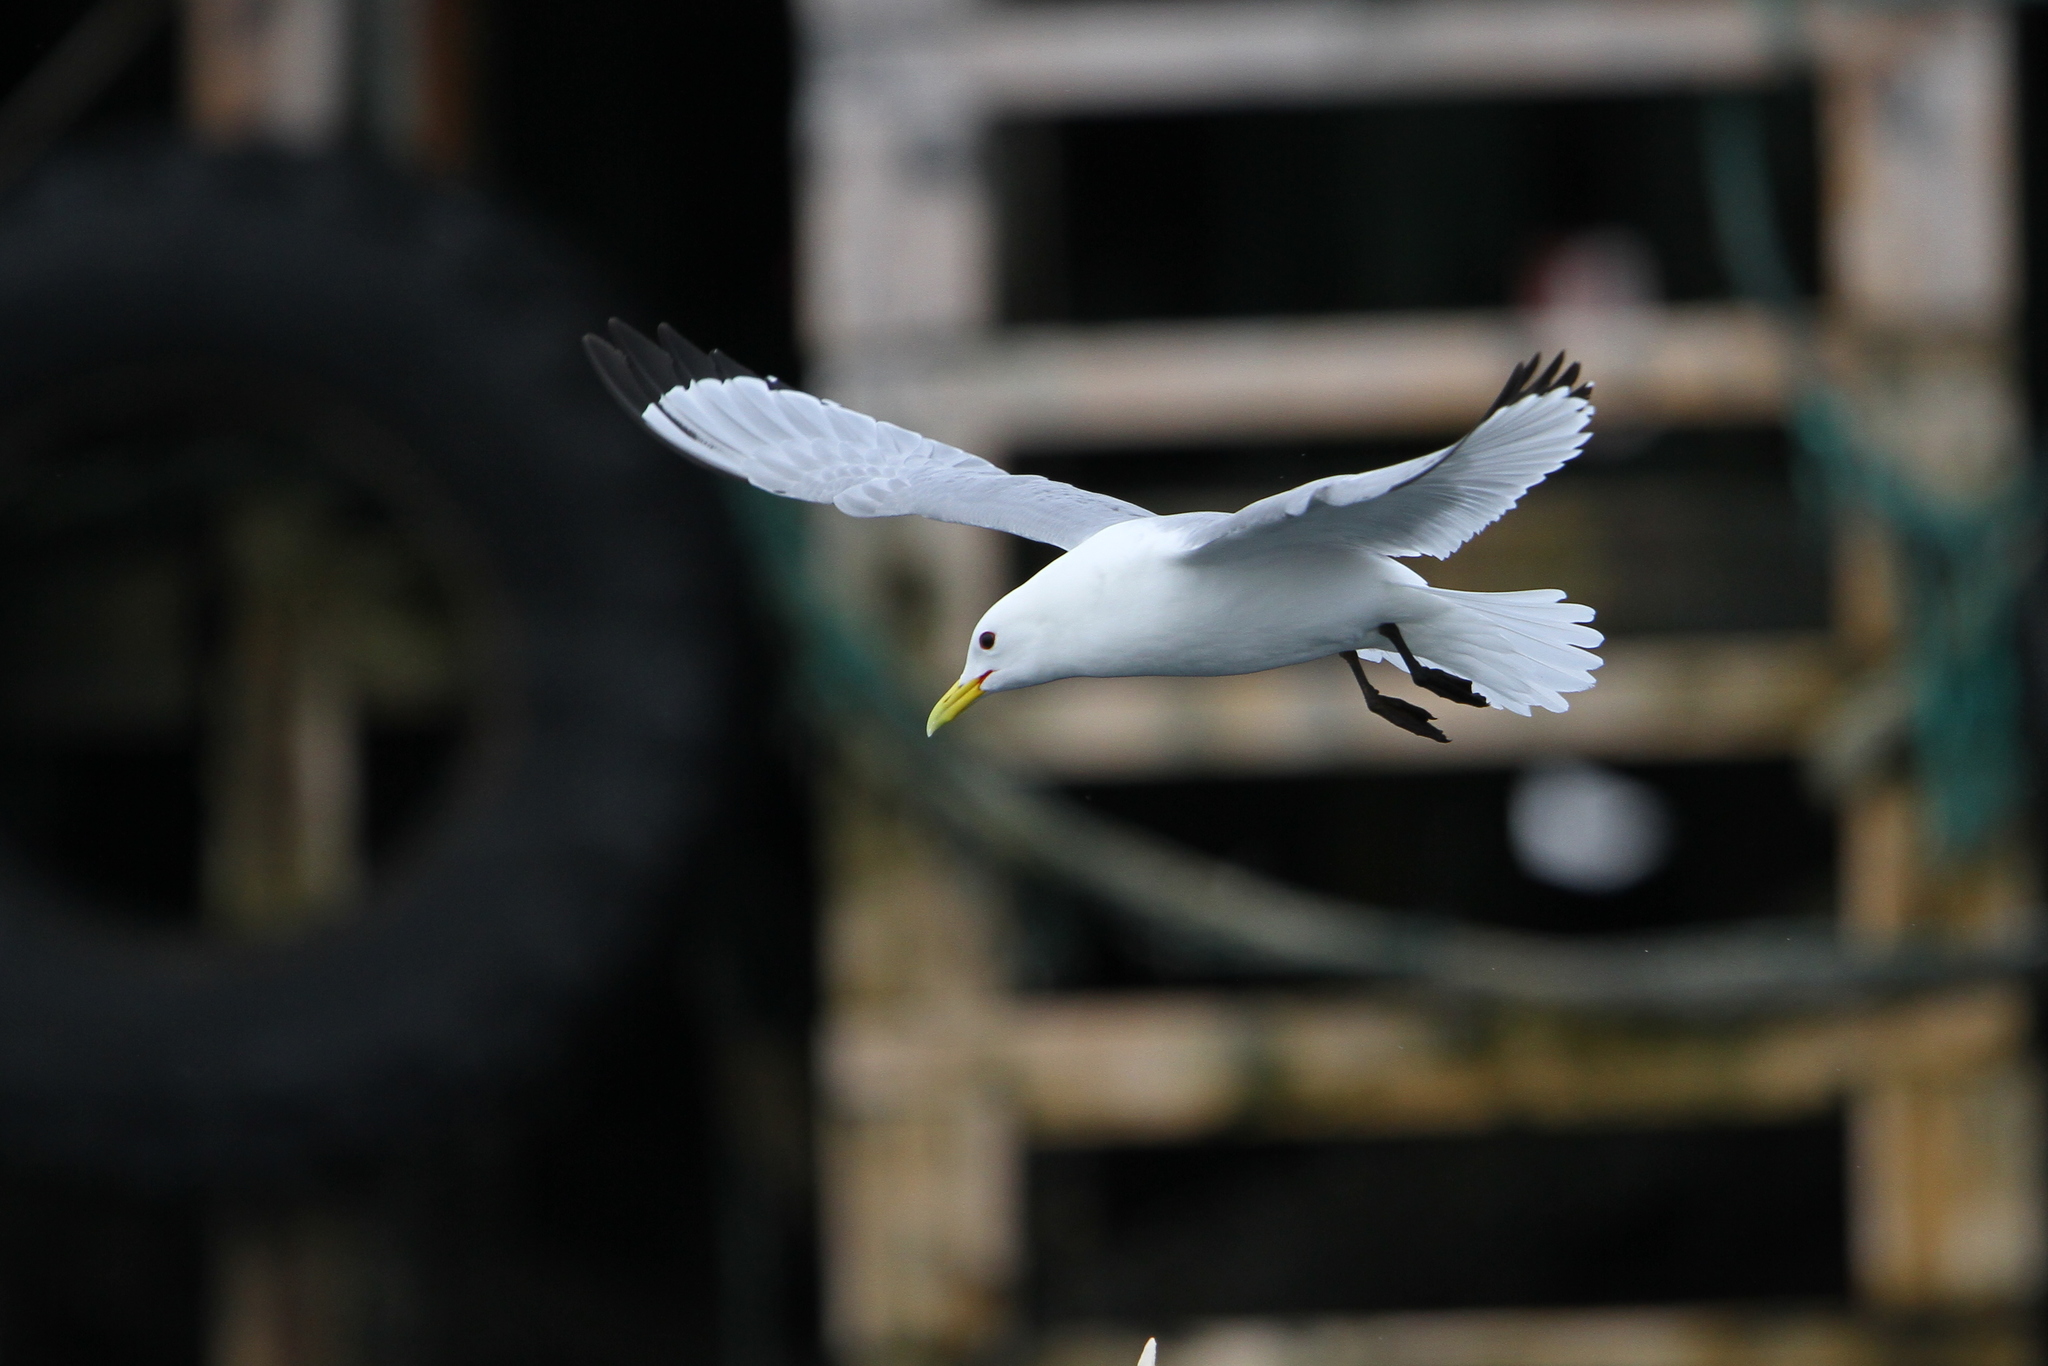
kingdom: Animalia
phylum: Chordata
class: Aves
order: Charadriiformes
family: Laridae
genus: Rissa
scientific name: Rissa tridactyla
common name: Black-legged kittiwake
